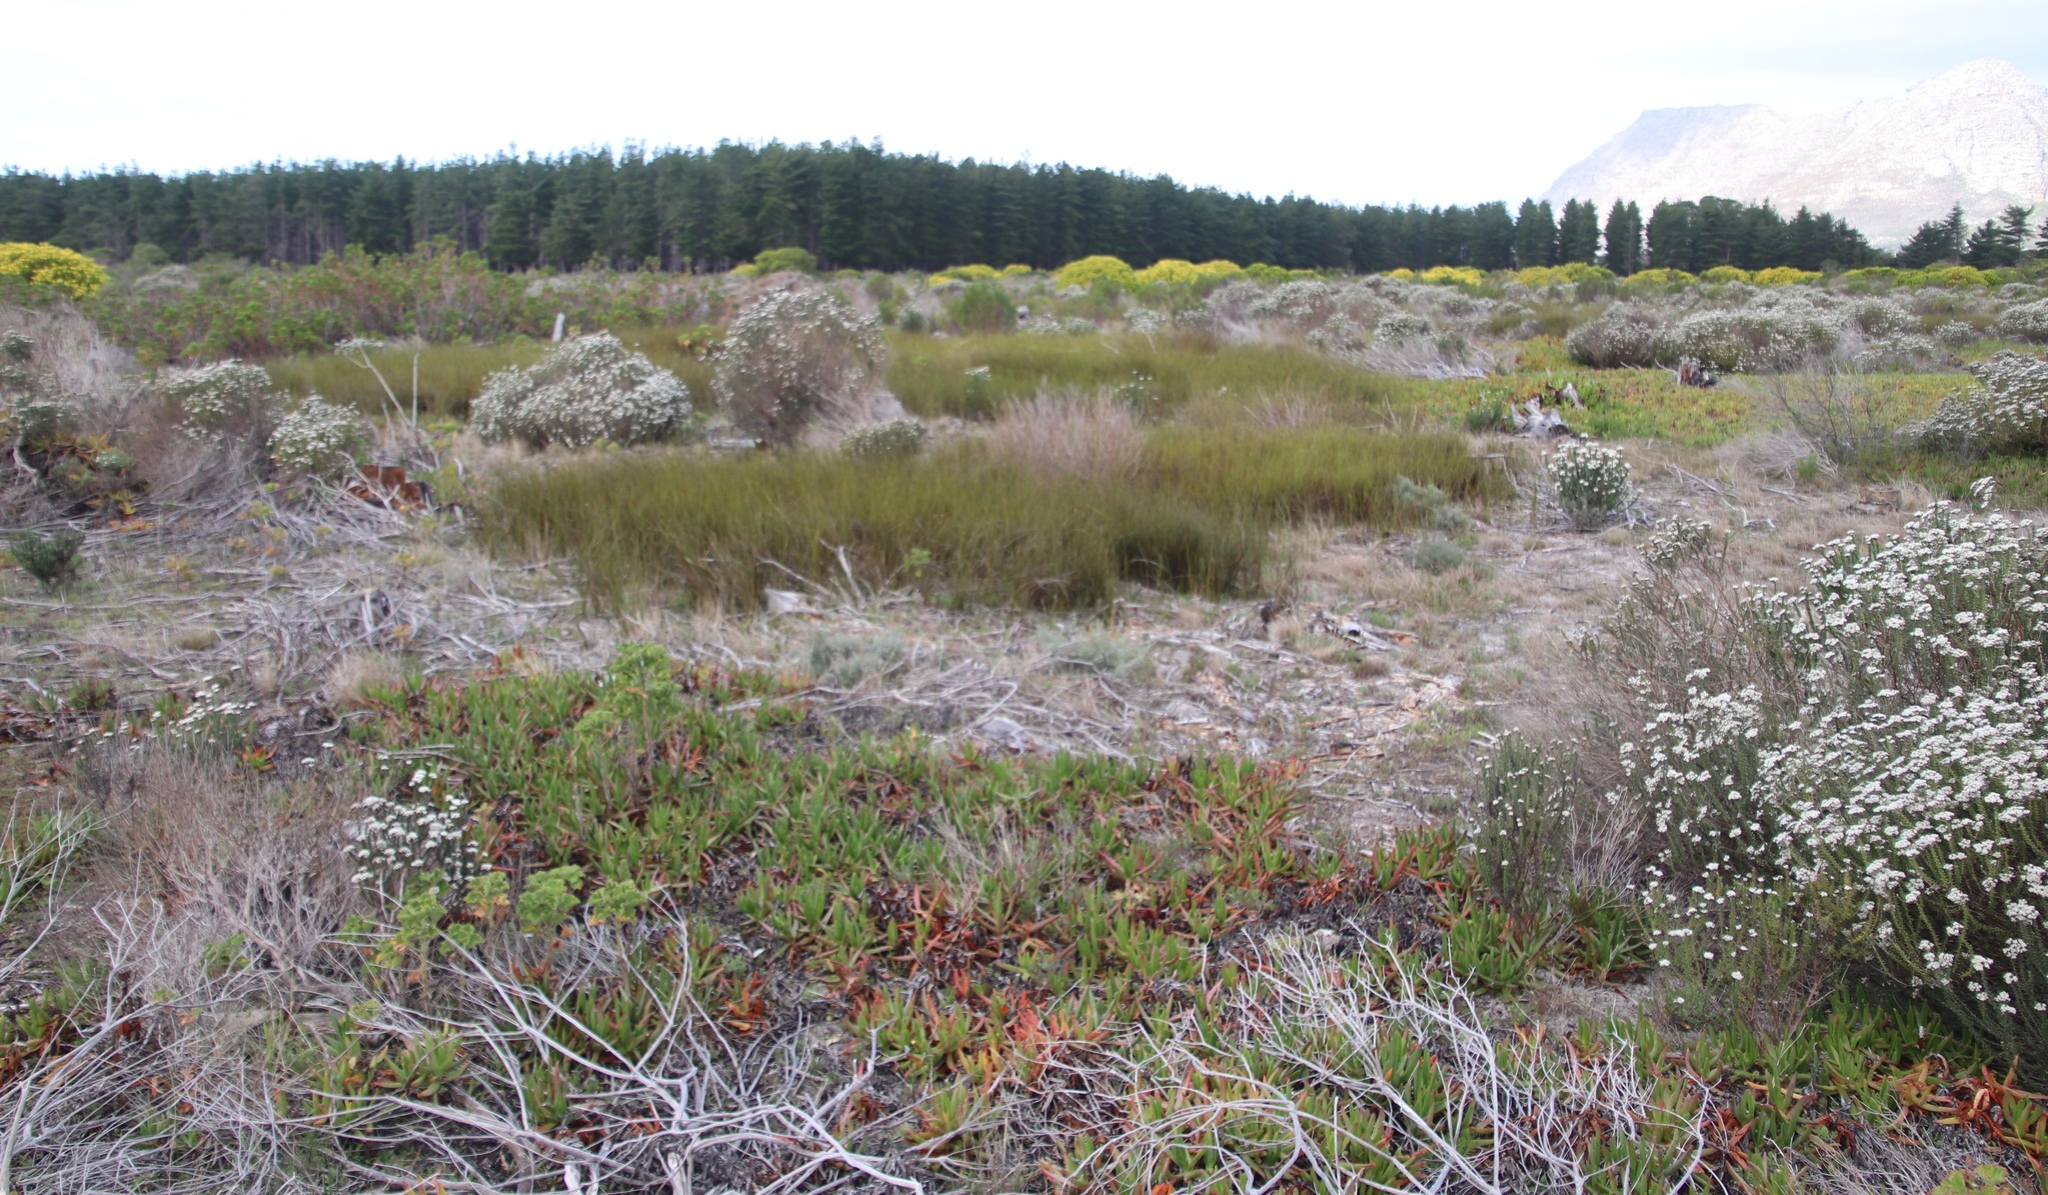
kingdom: Plantae
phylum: Tracheophyta
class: Liliopsida
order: Poales
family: Restionaceae
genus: Willdenowia
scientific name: Willdenowia sulcata
